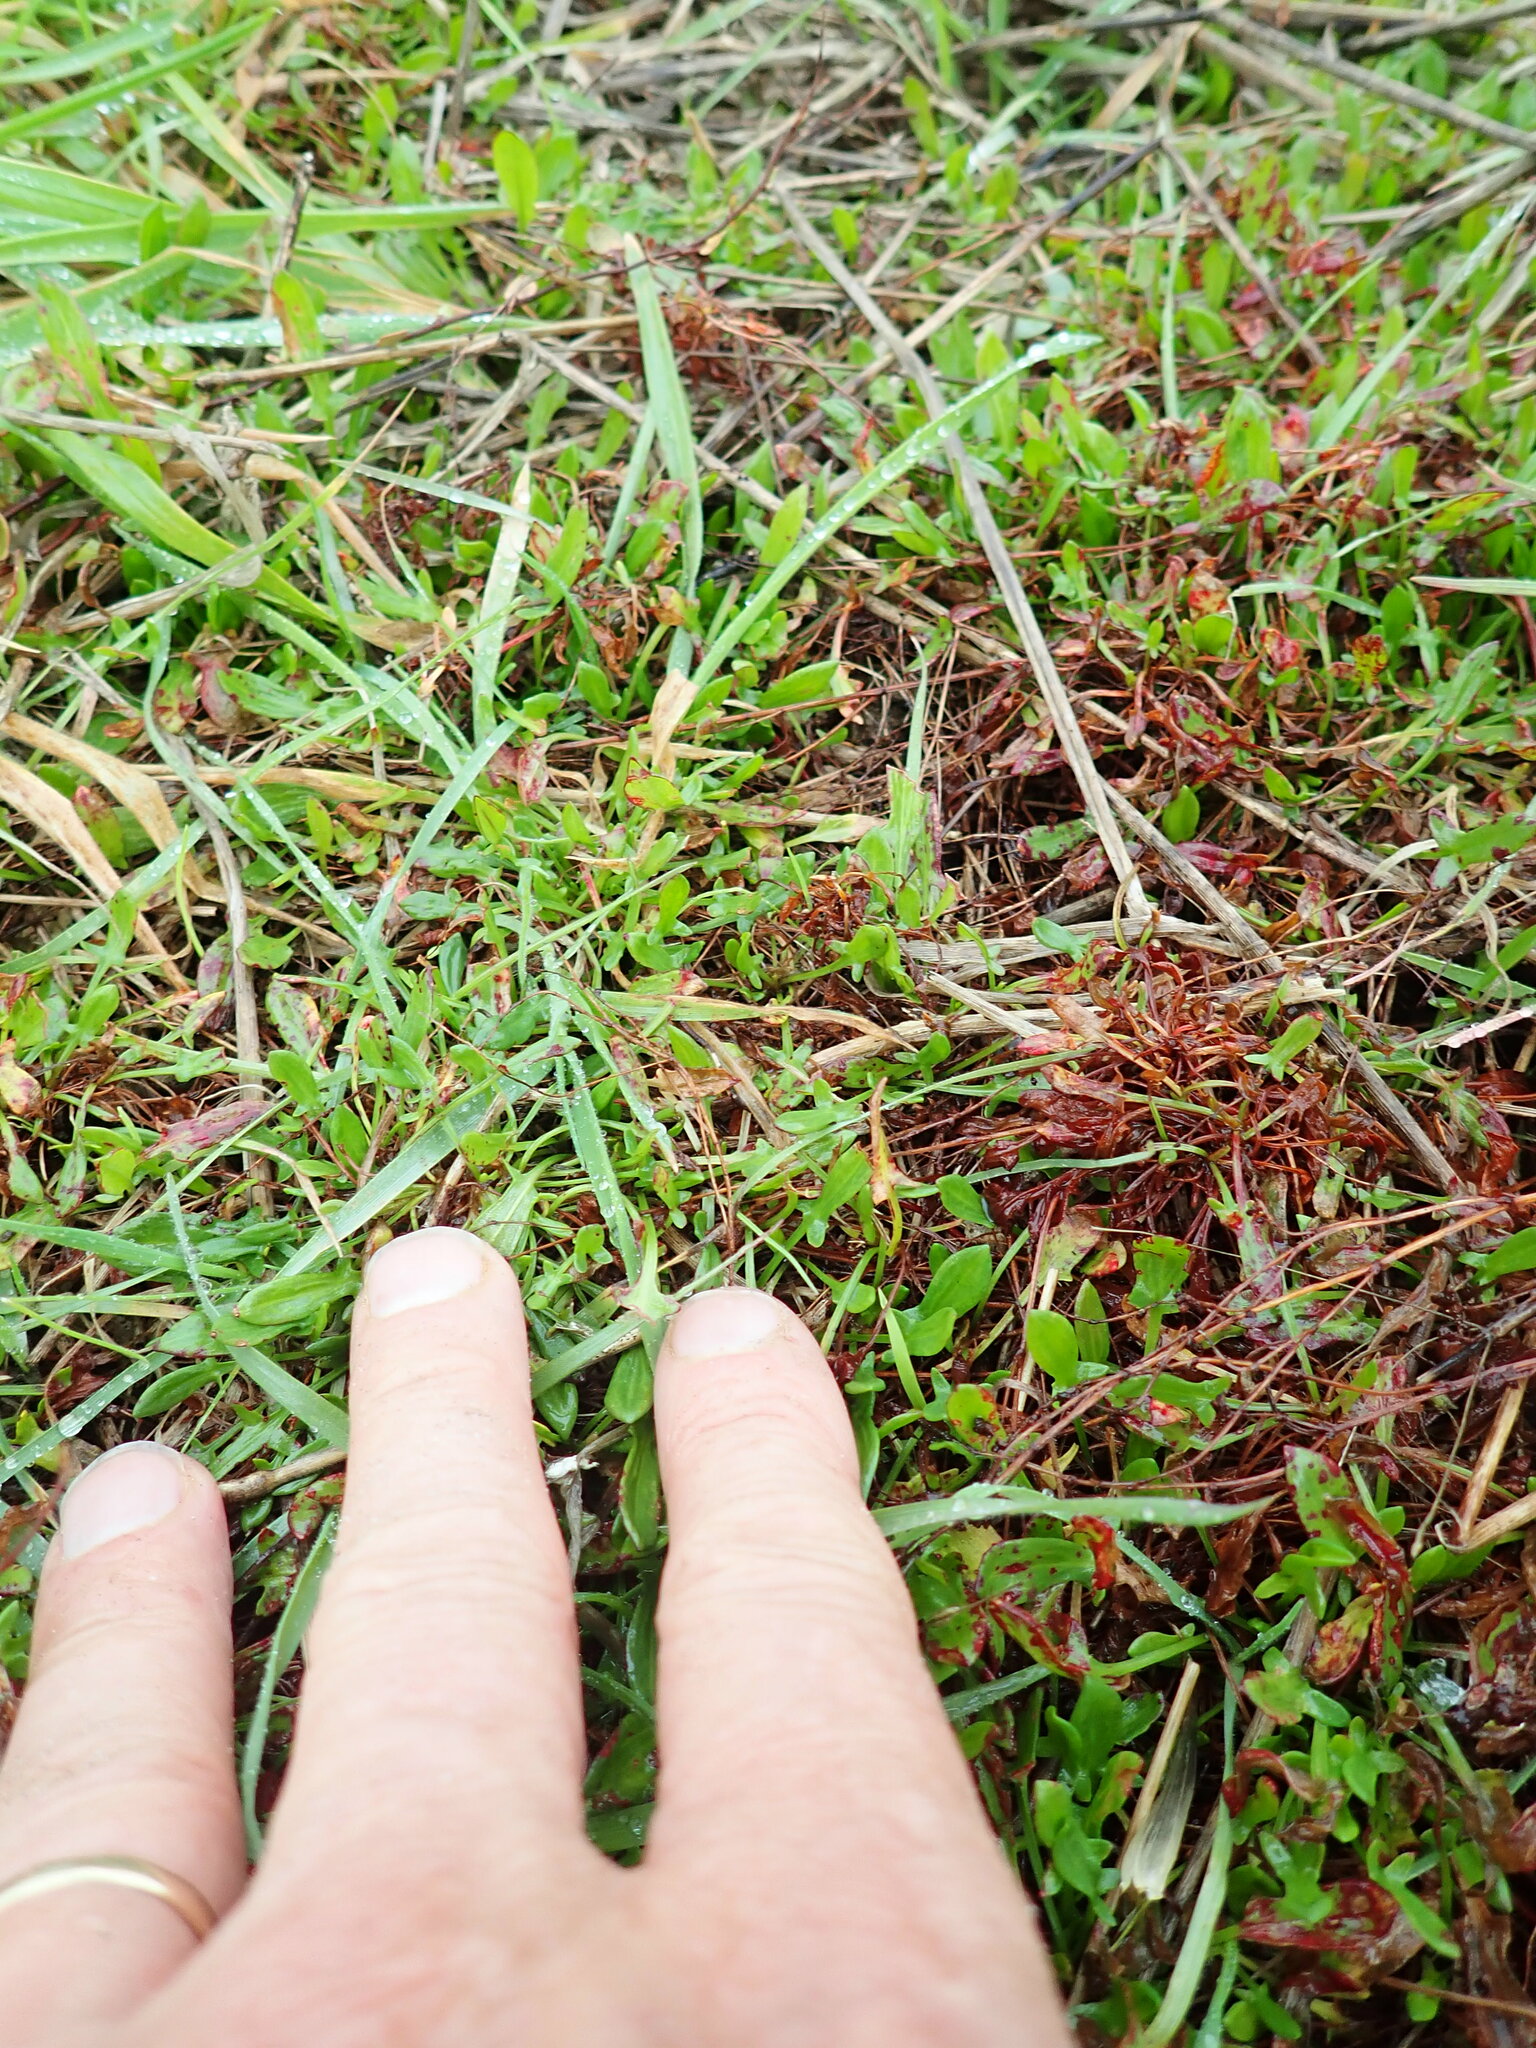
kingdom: Plantae
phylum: Tracheophyta
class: Magnoliopsida
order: Caryophyllales
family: Polygonaceae
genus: Rumex
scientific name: Rumex acetosella
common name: Common sheep sorrel
